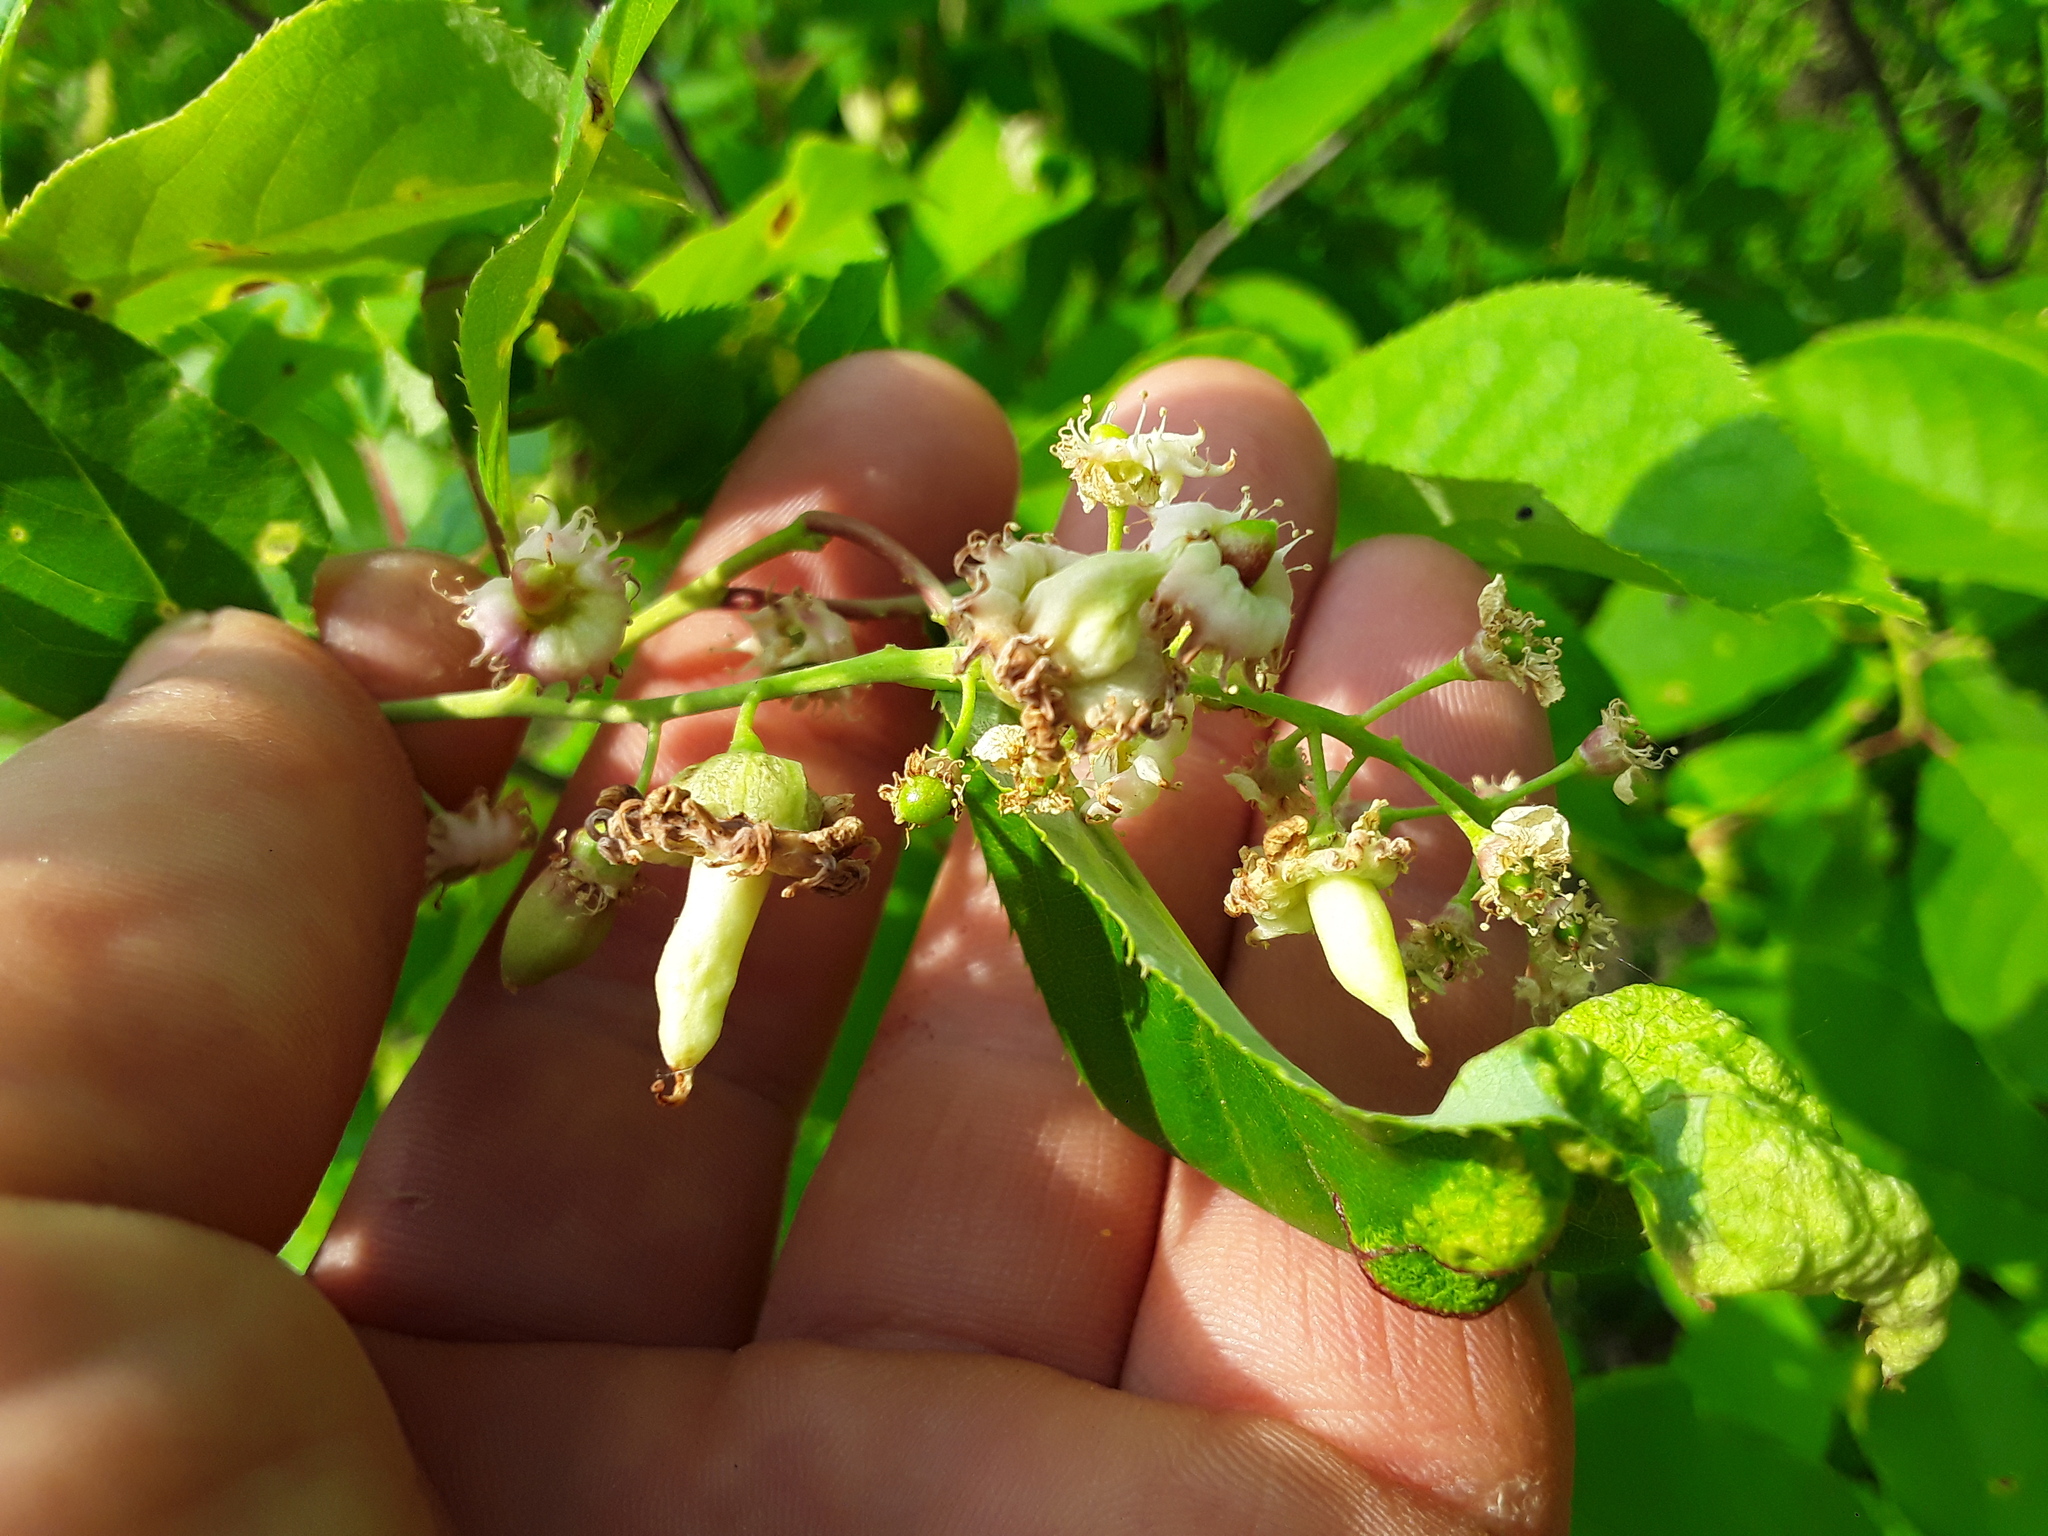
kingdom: Fungi
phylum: Ascomycota
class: Taphrinomycetes
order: Taphrinales
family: Taphrinaceae
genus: Taphrina
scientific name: Taphrina confusa
